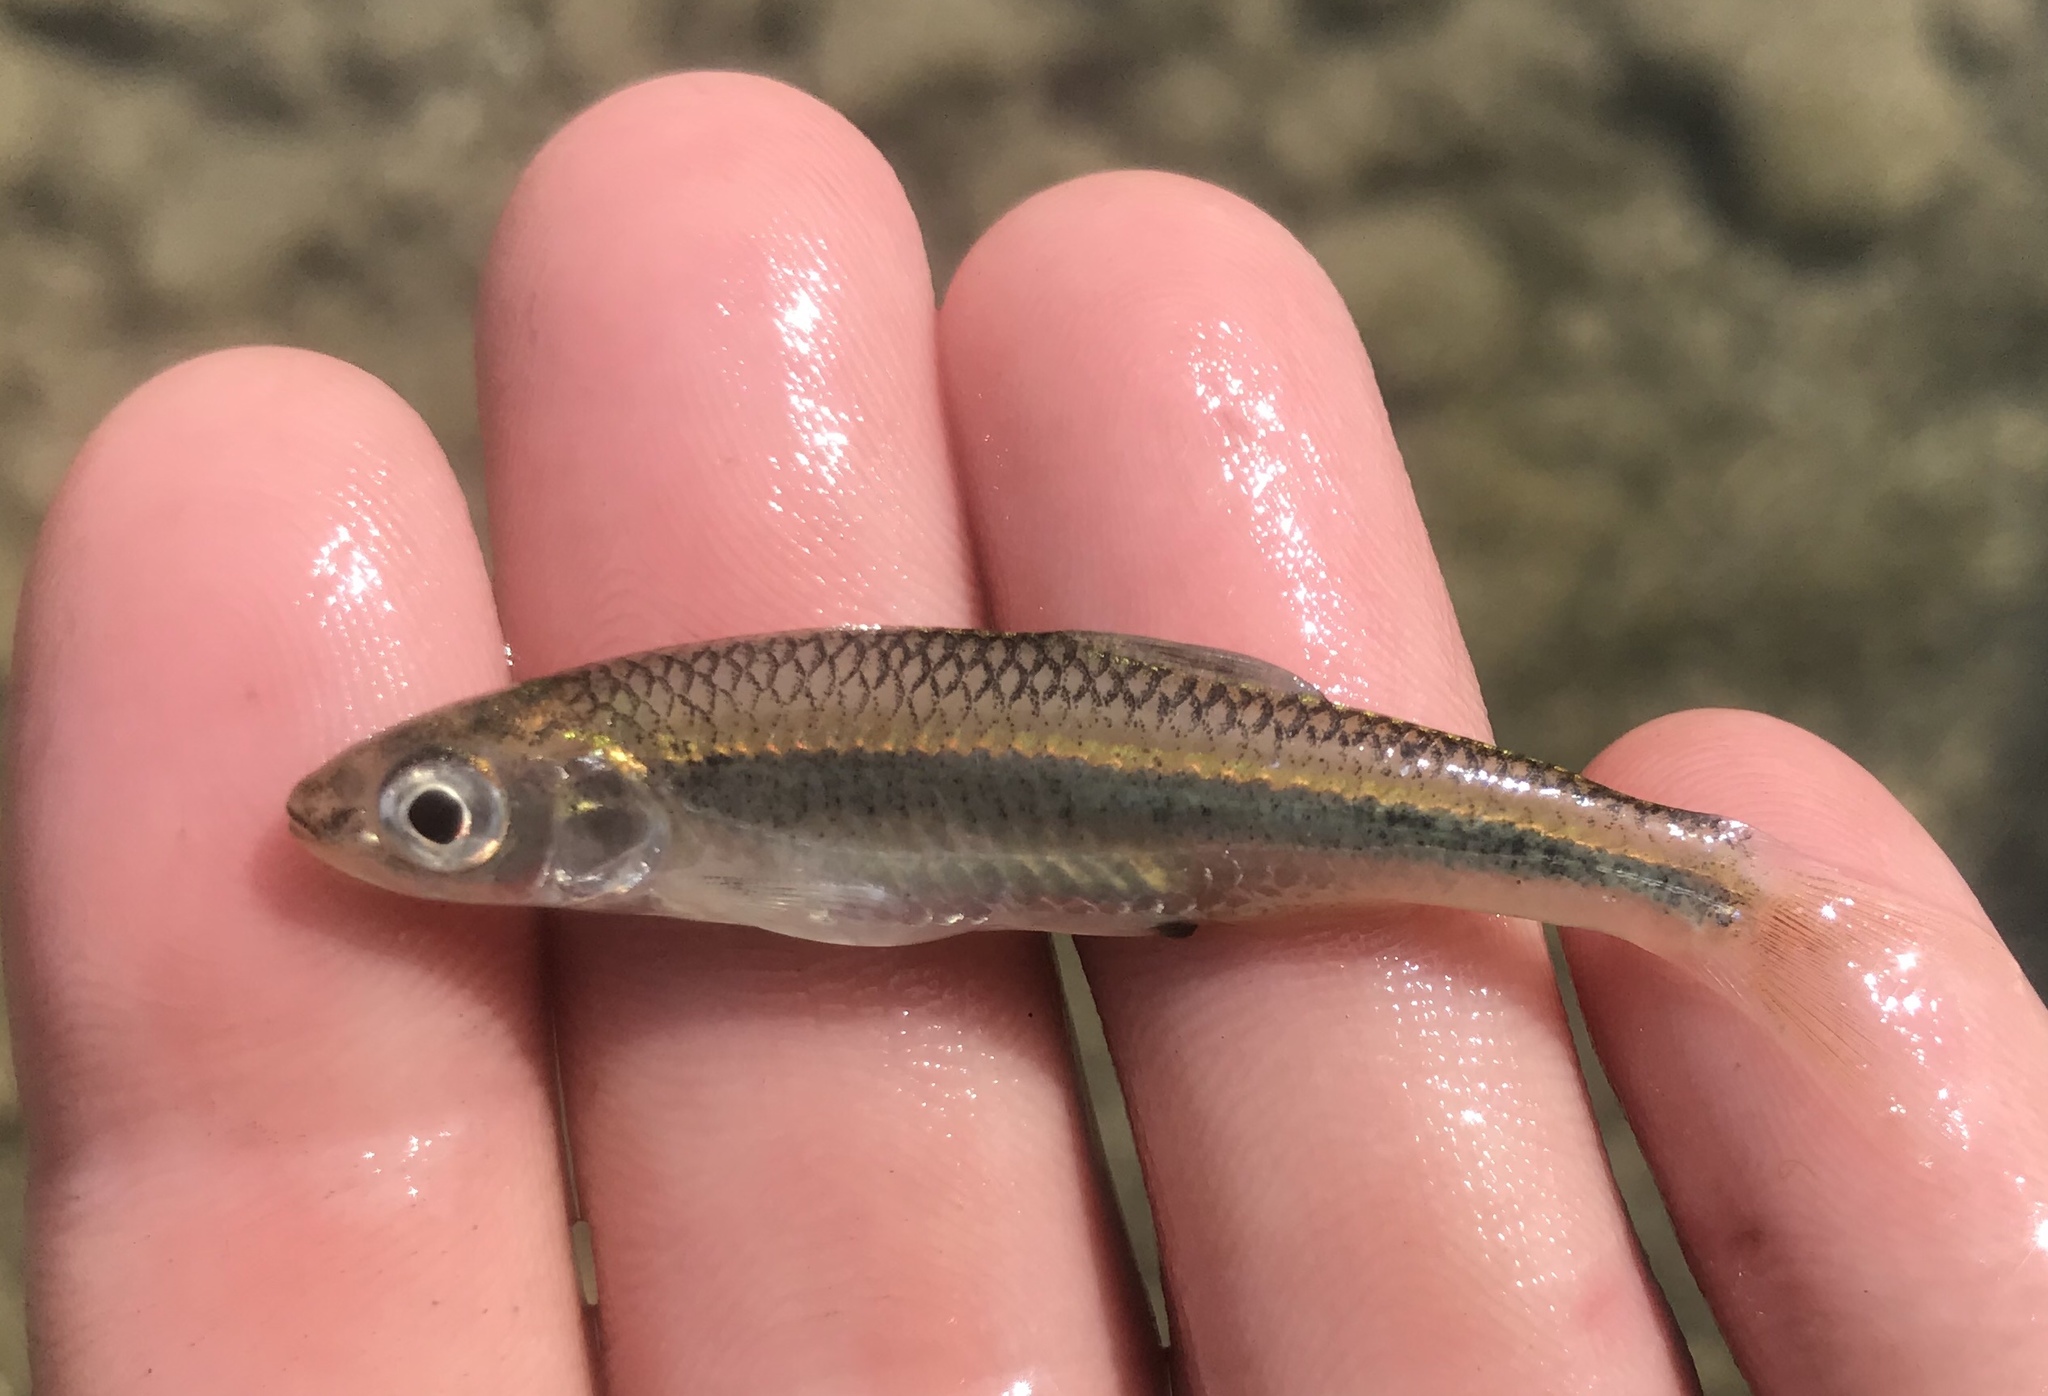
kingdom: Animalia
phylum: Chordata
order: Cypriniformes
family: Cyprinidae
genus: Notropis
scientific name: Notropis amabilis
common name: Texas shiner
